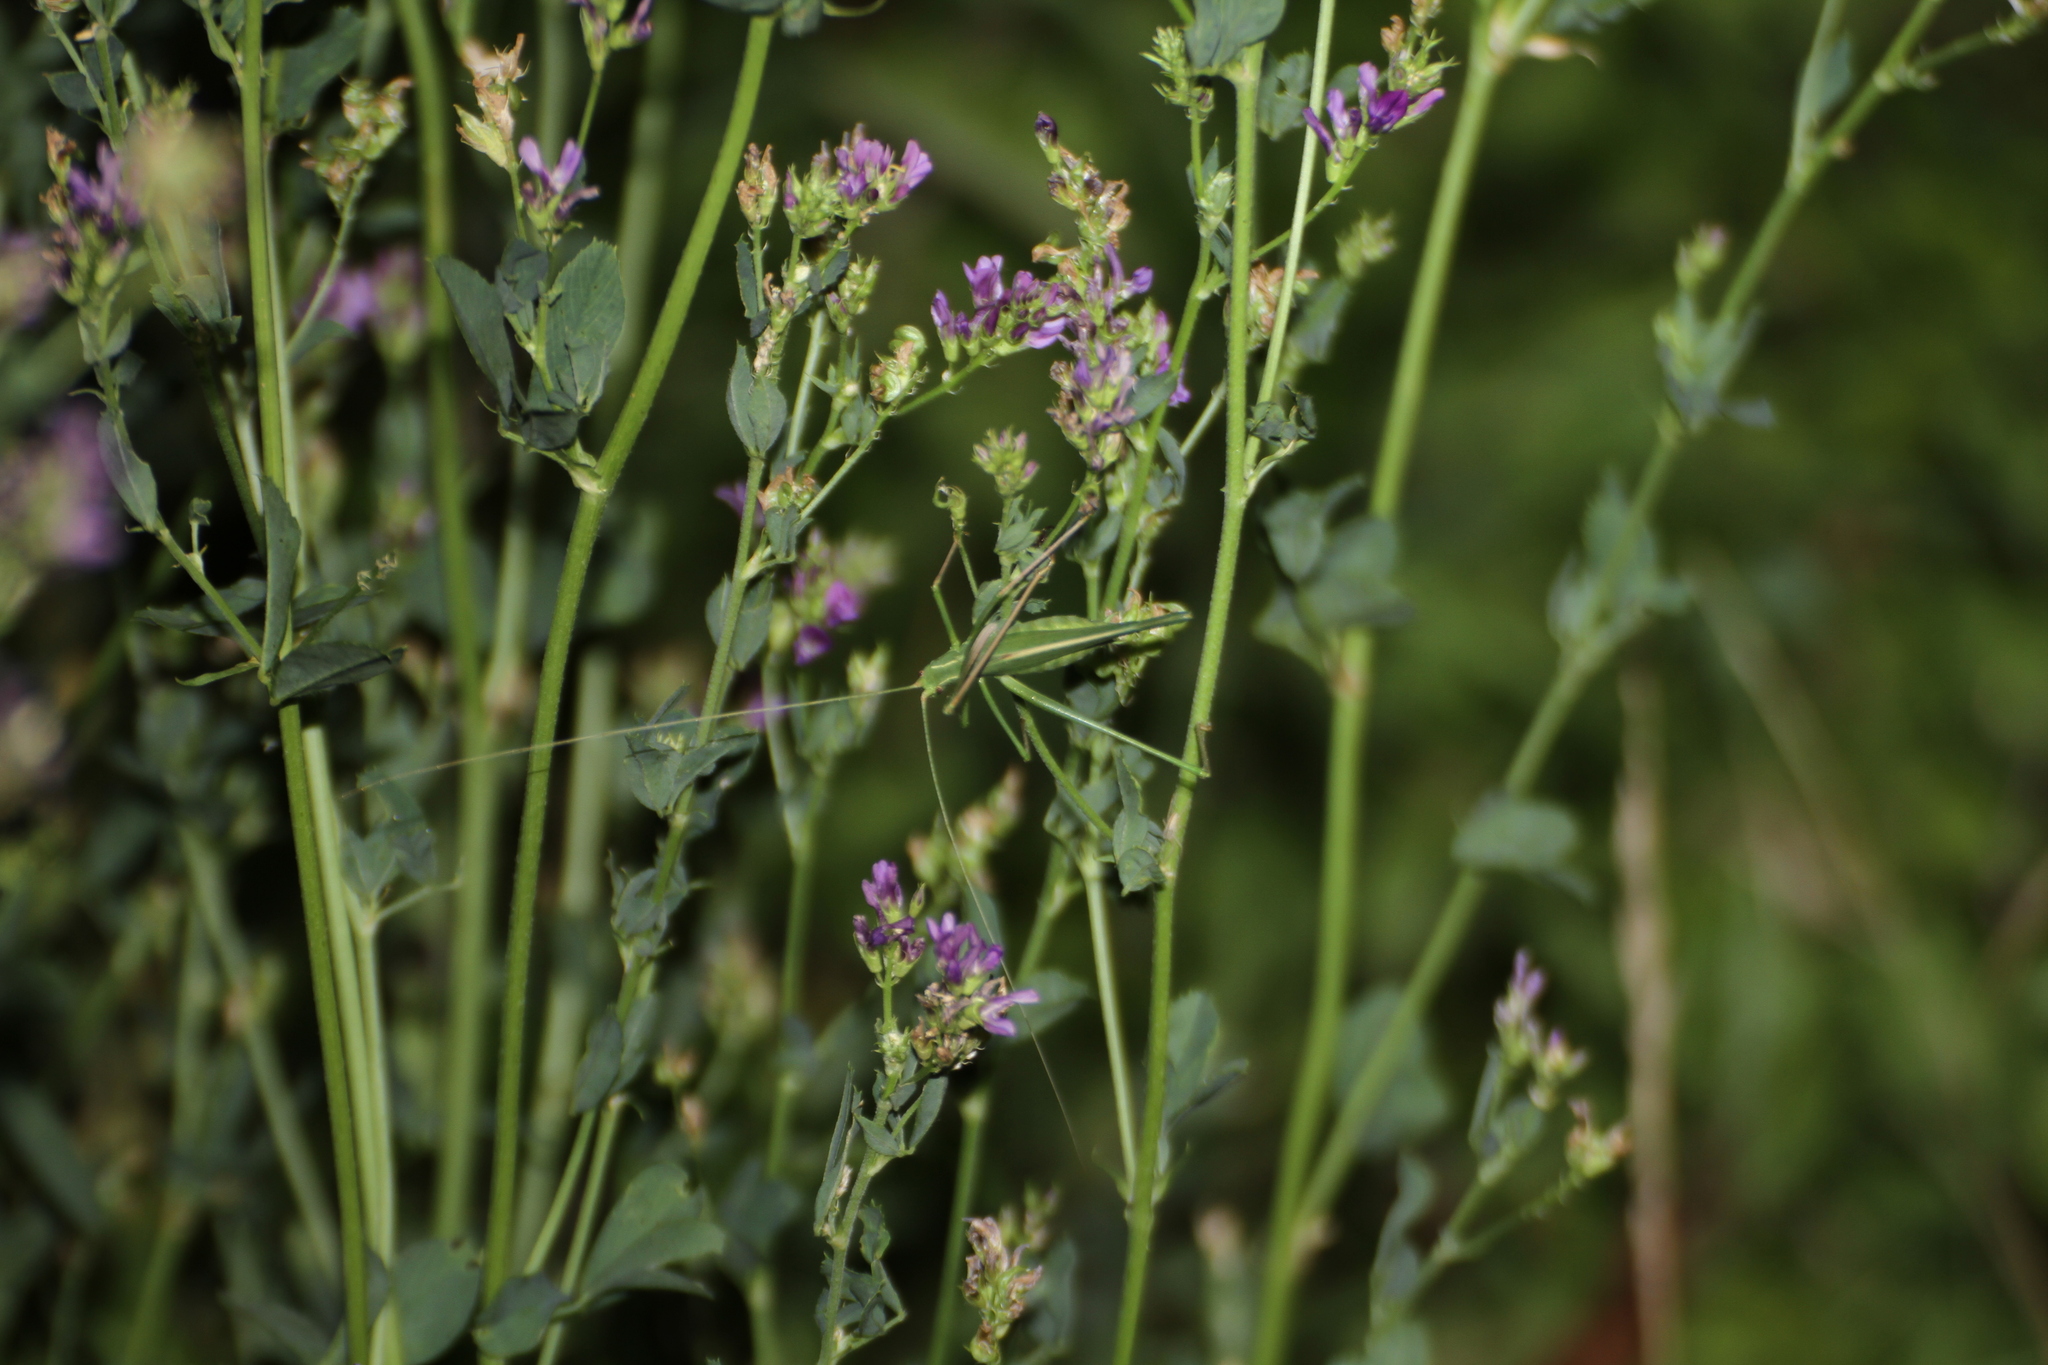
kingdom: Animalia
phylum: Arthropoda
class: Insecta
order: Orthoptera
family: Tettigoniidae
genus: Tylopsis
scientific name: Tylopsis lilifolia
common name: Lily bush-cricket
